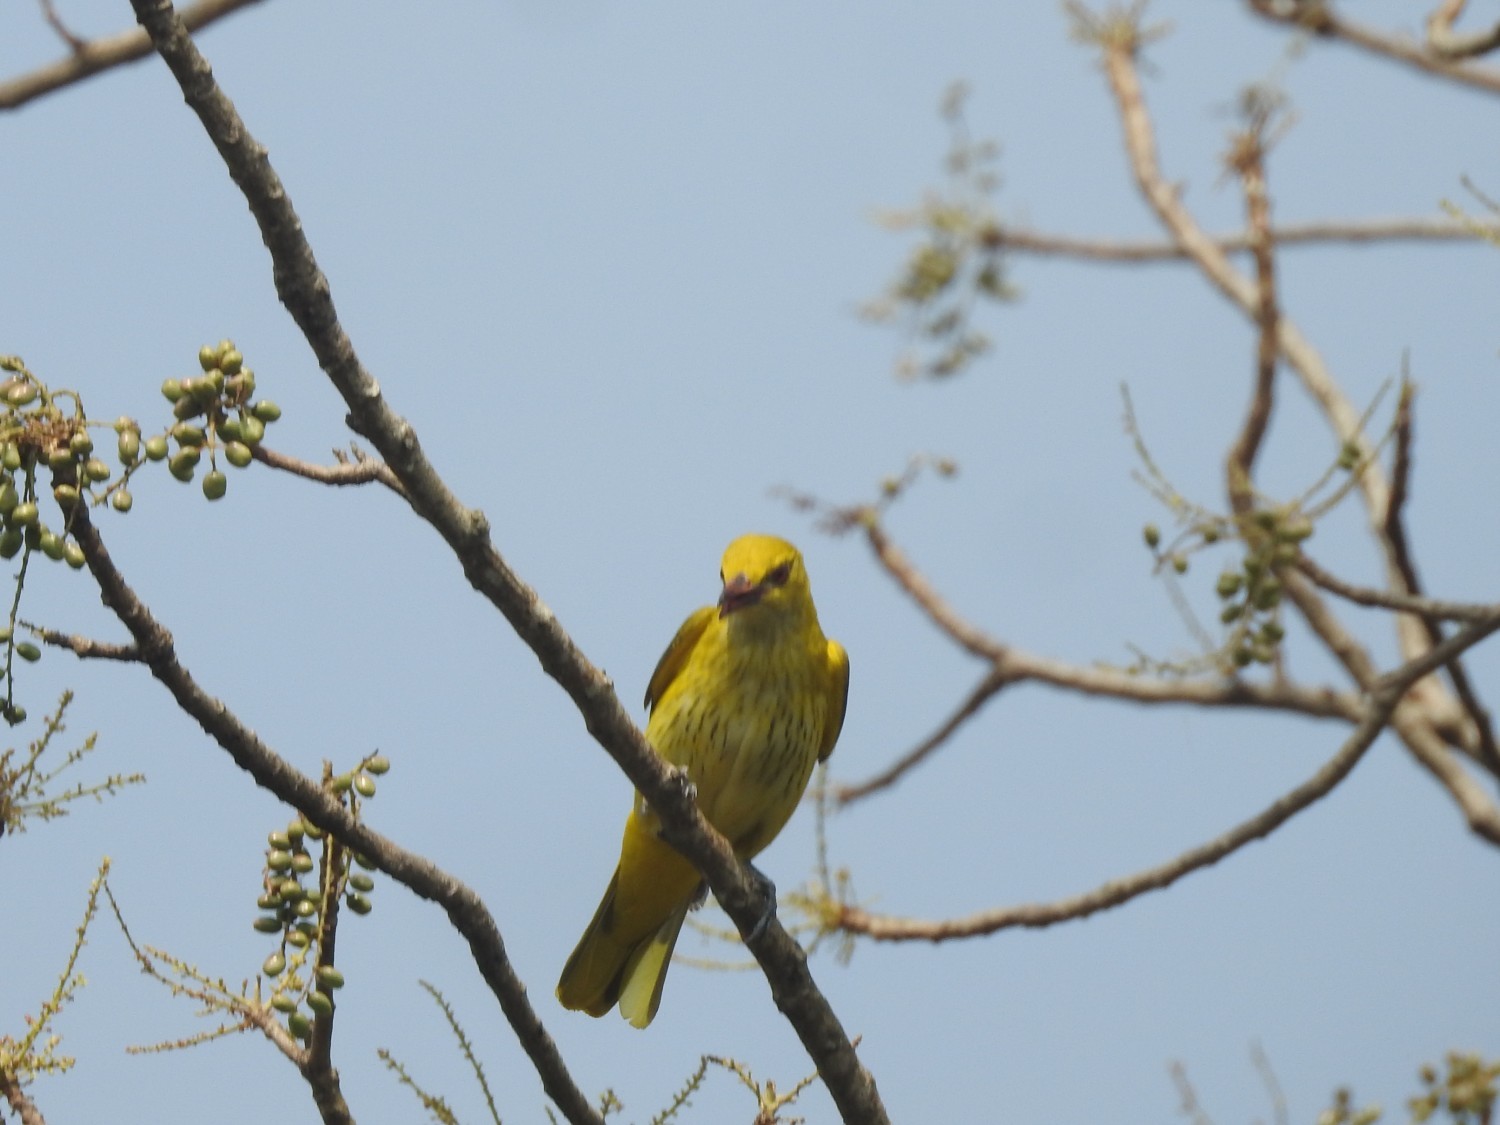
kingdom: Animalia
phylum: Chordata
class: Aves
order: Passeriformes
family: Oriolidae
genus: Oriolus
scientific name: Oriolus kundoo
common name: Indian golden oriole
